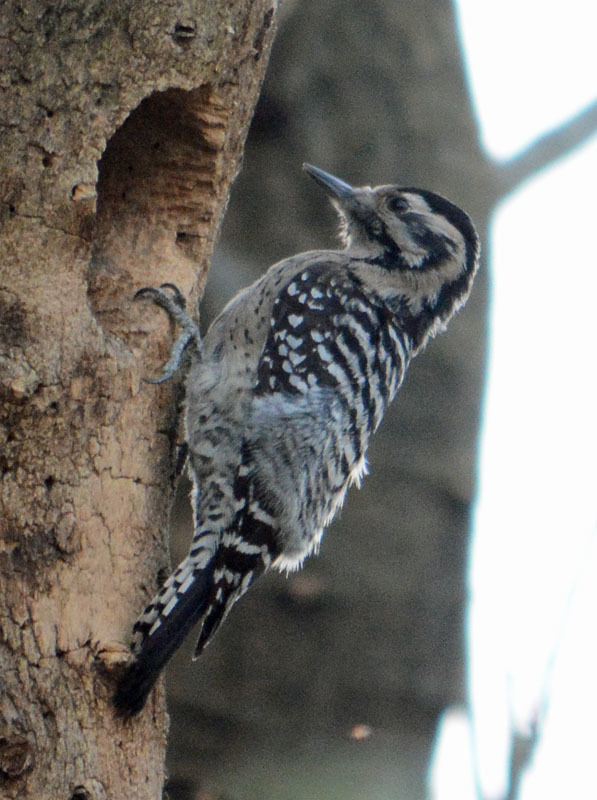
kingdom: Animalia
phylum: Chordata
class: Aves
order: Piciformes
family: Picidae
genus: Dryobates
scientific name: Dryobates scalaris
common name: Ladder-backed woodpecker
